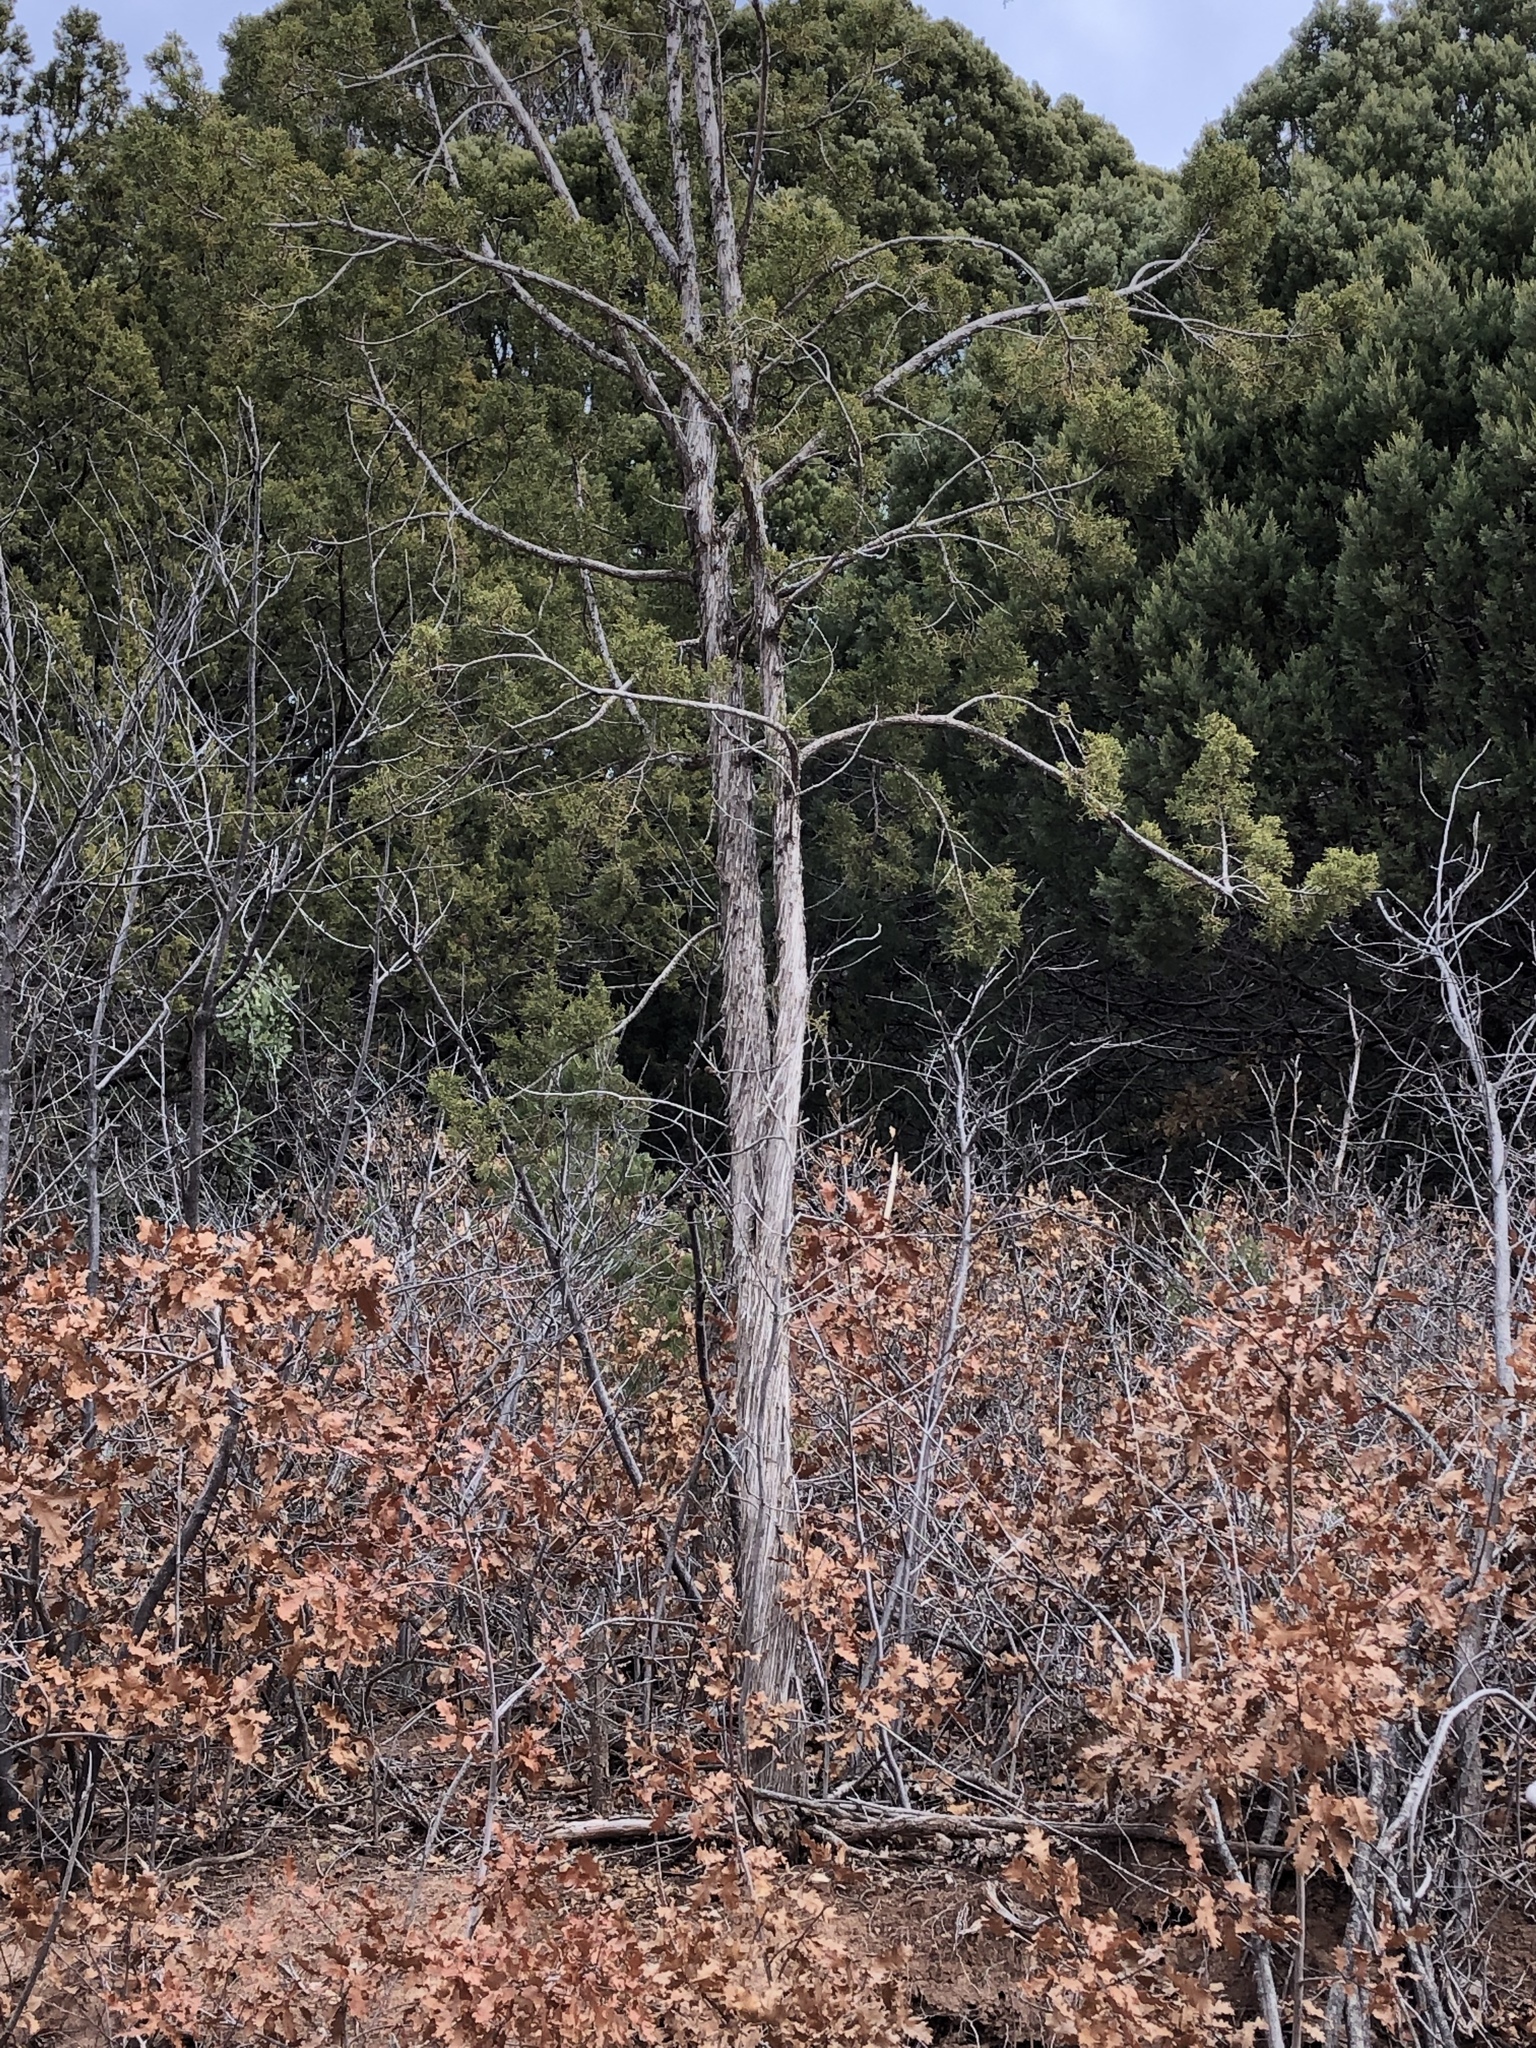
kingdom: Plantae
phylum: Tracheophyta
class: Pinopsida
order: Pinales
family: Cupressaceae
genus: Juniperus
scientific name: Juniperus monosperma
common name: One-seed juniper
